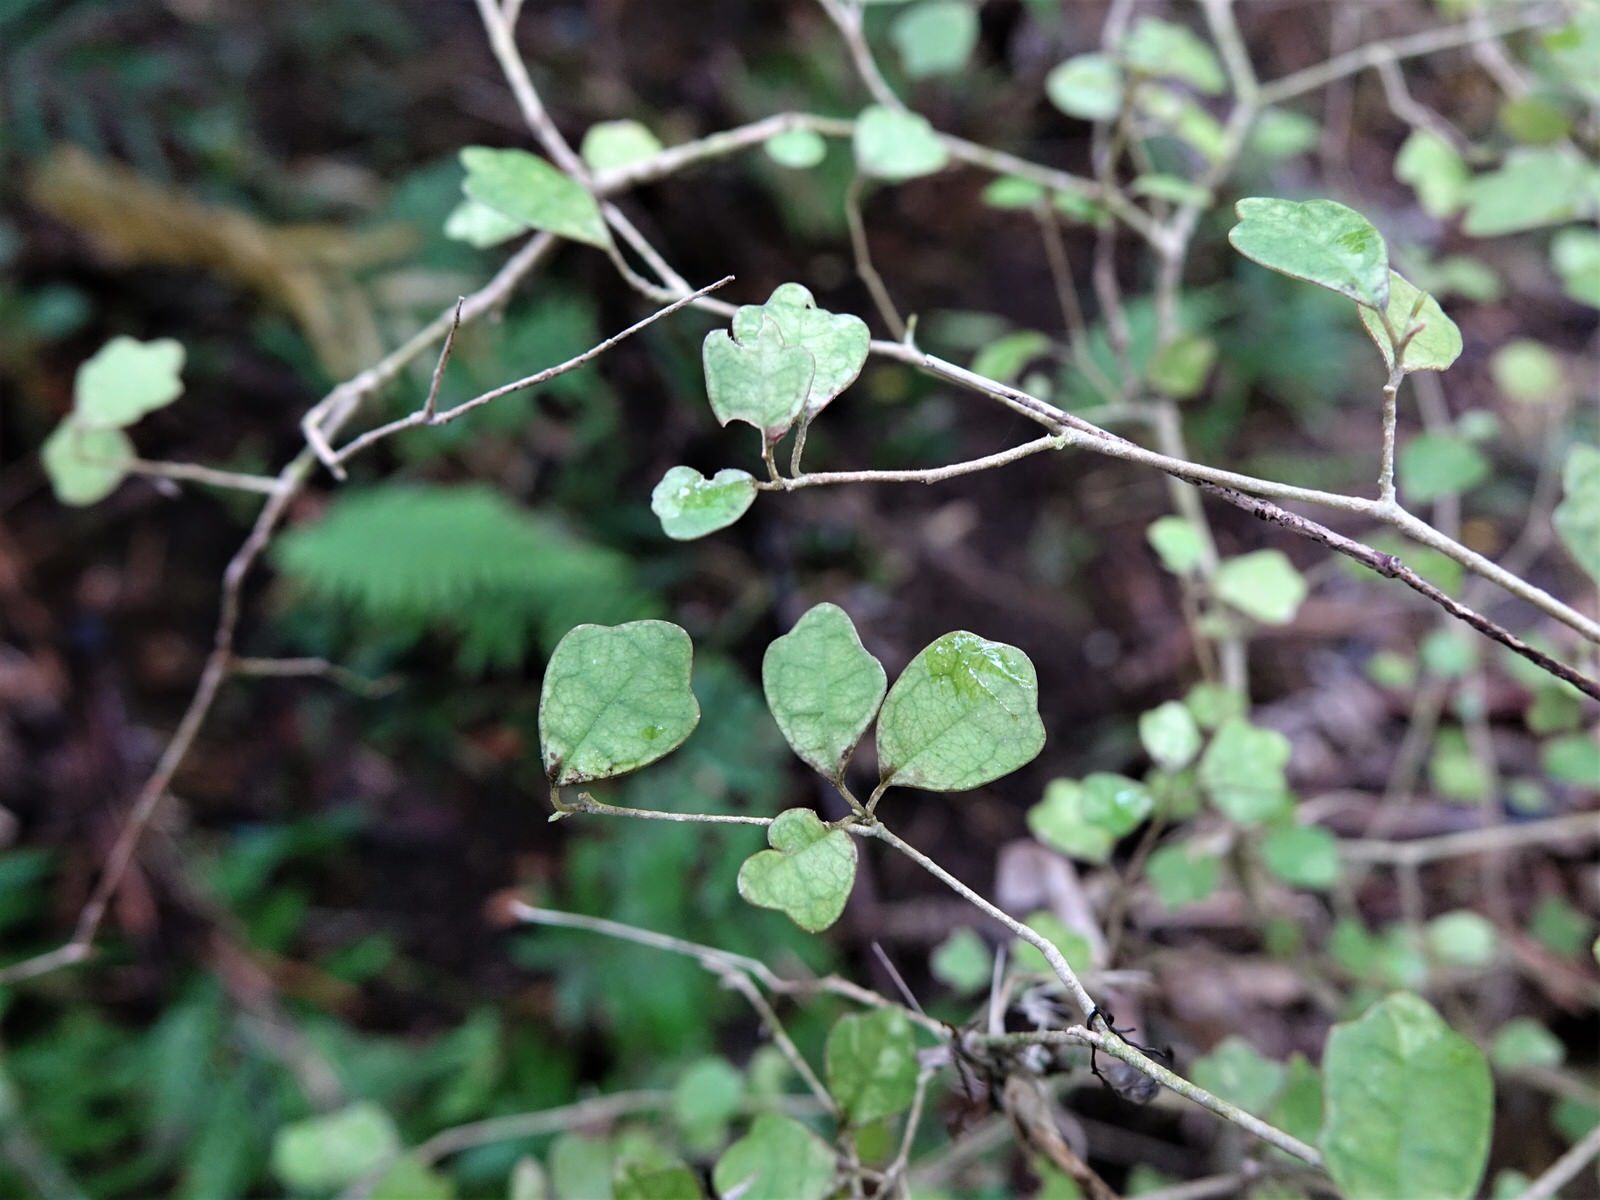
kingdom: Plantae
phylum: Tracheophyta
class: Magnoliopsida
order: Apiales
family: Pennantiaceae
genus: Pennantia
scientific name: Pennantia corymbosa
